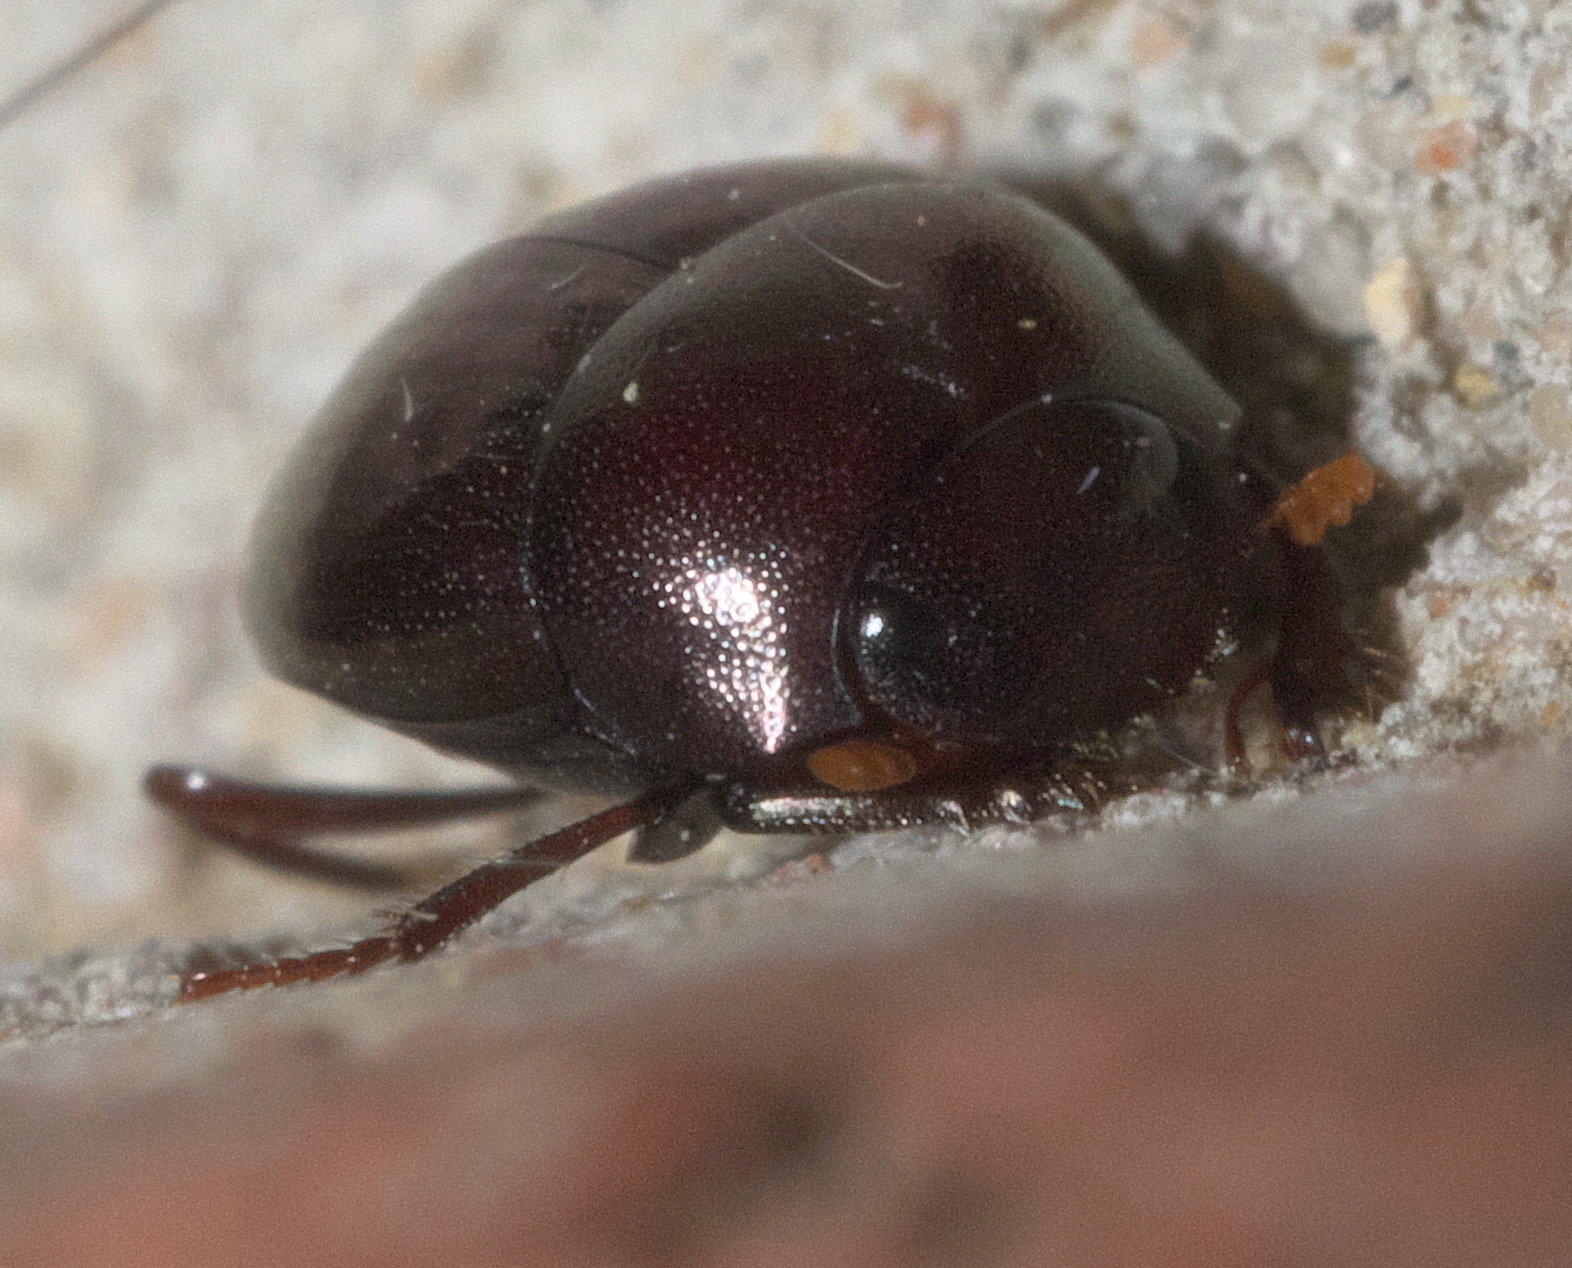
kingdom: Animalia
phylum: Arthropoda
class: Insecta
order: Coleoptera
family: Scarabaeidae
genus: Pseudocanthon
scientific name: Pseudocanthon perplexus
